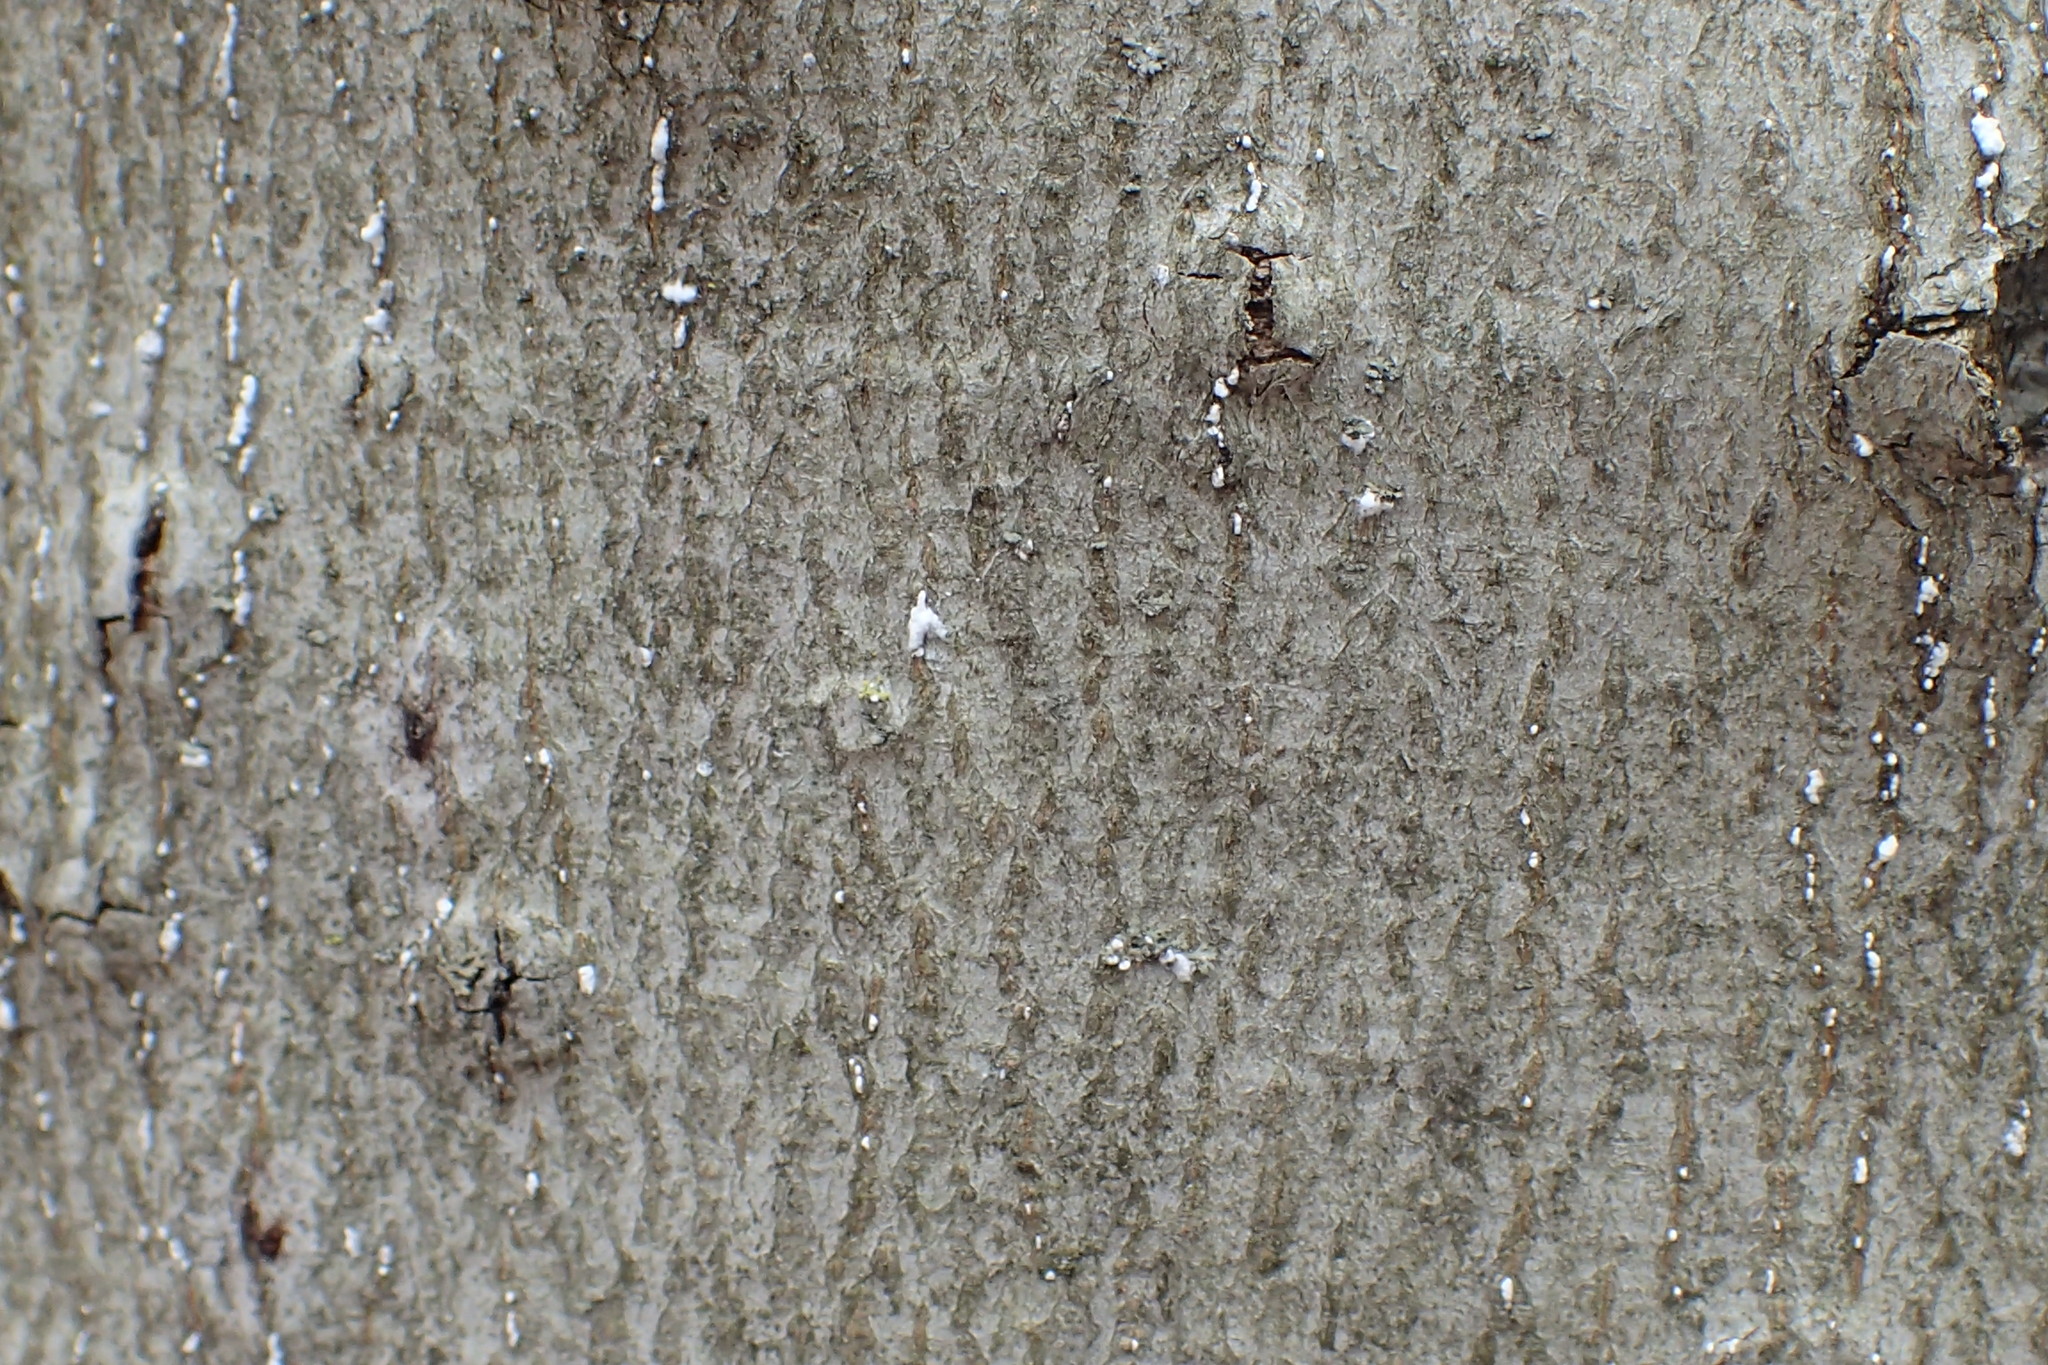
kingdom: Animalia
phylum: Arthropoda
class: Insecta
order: Hemiptera
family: Eriococcidae
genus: Cryptococcus
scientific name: Cryptococcus fagisuga
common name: Beech scale
